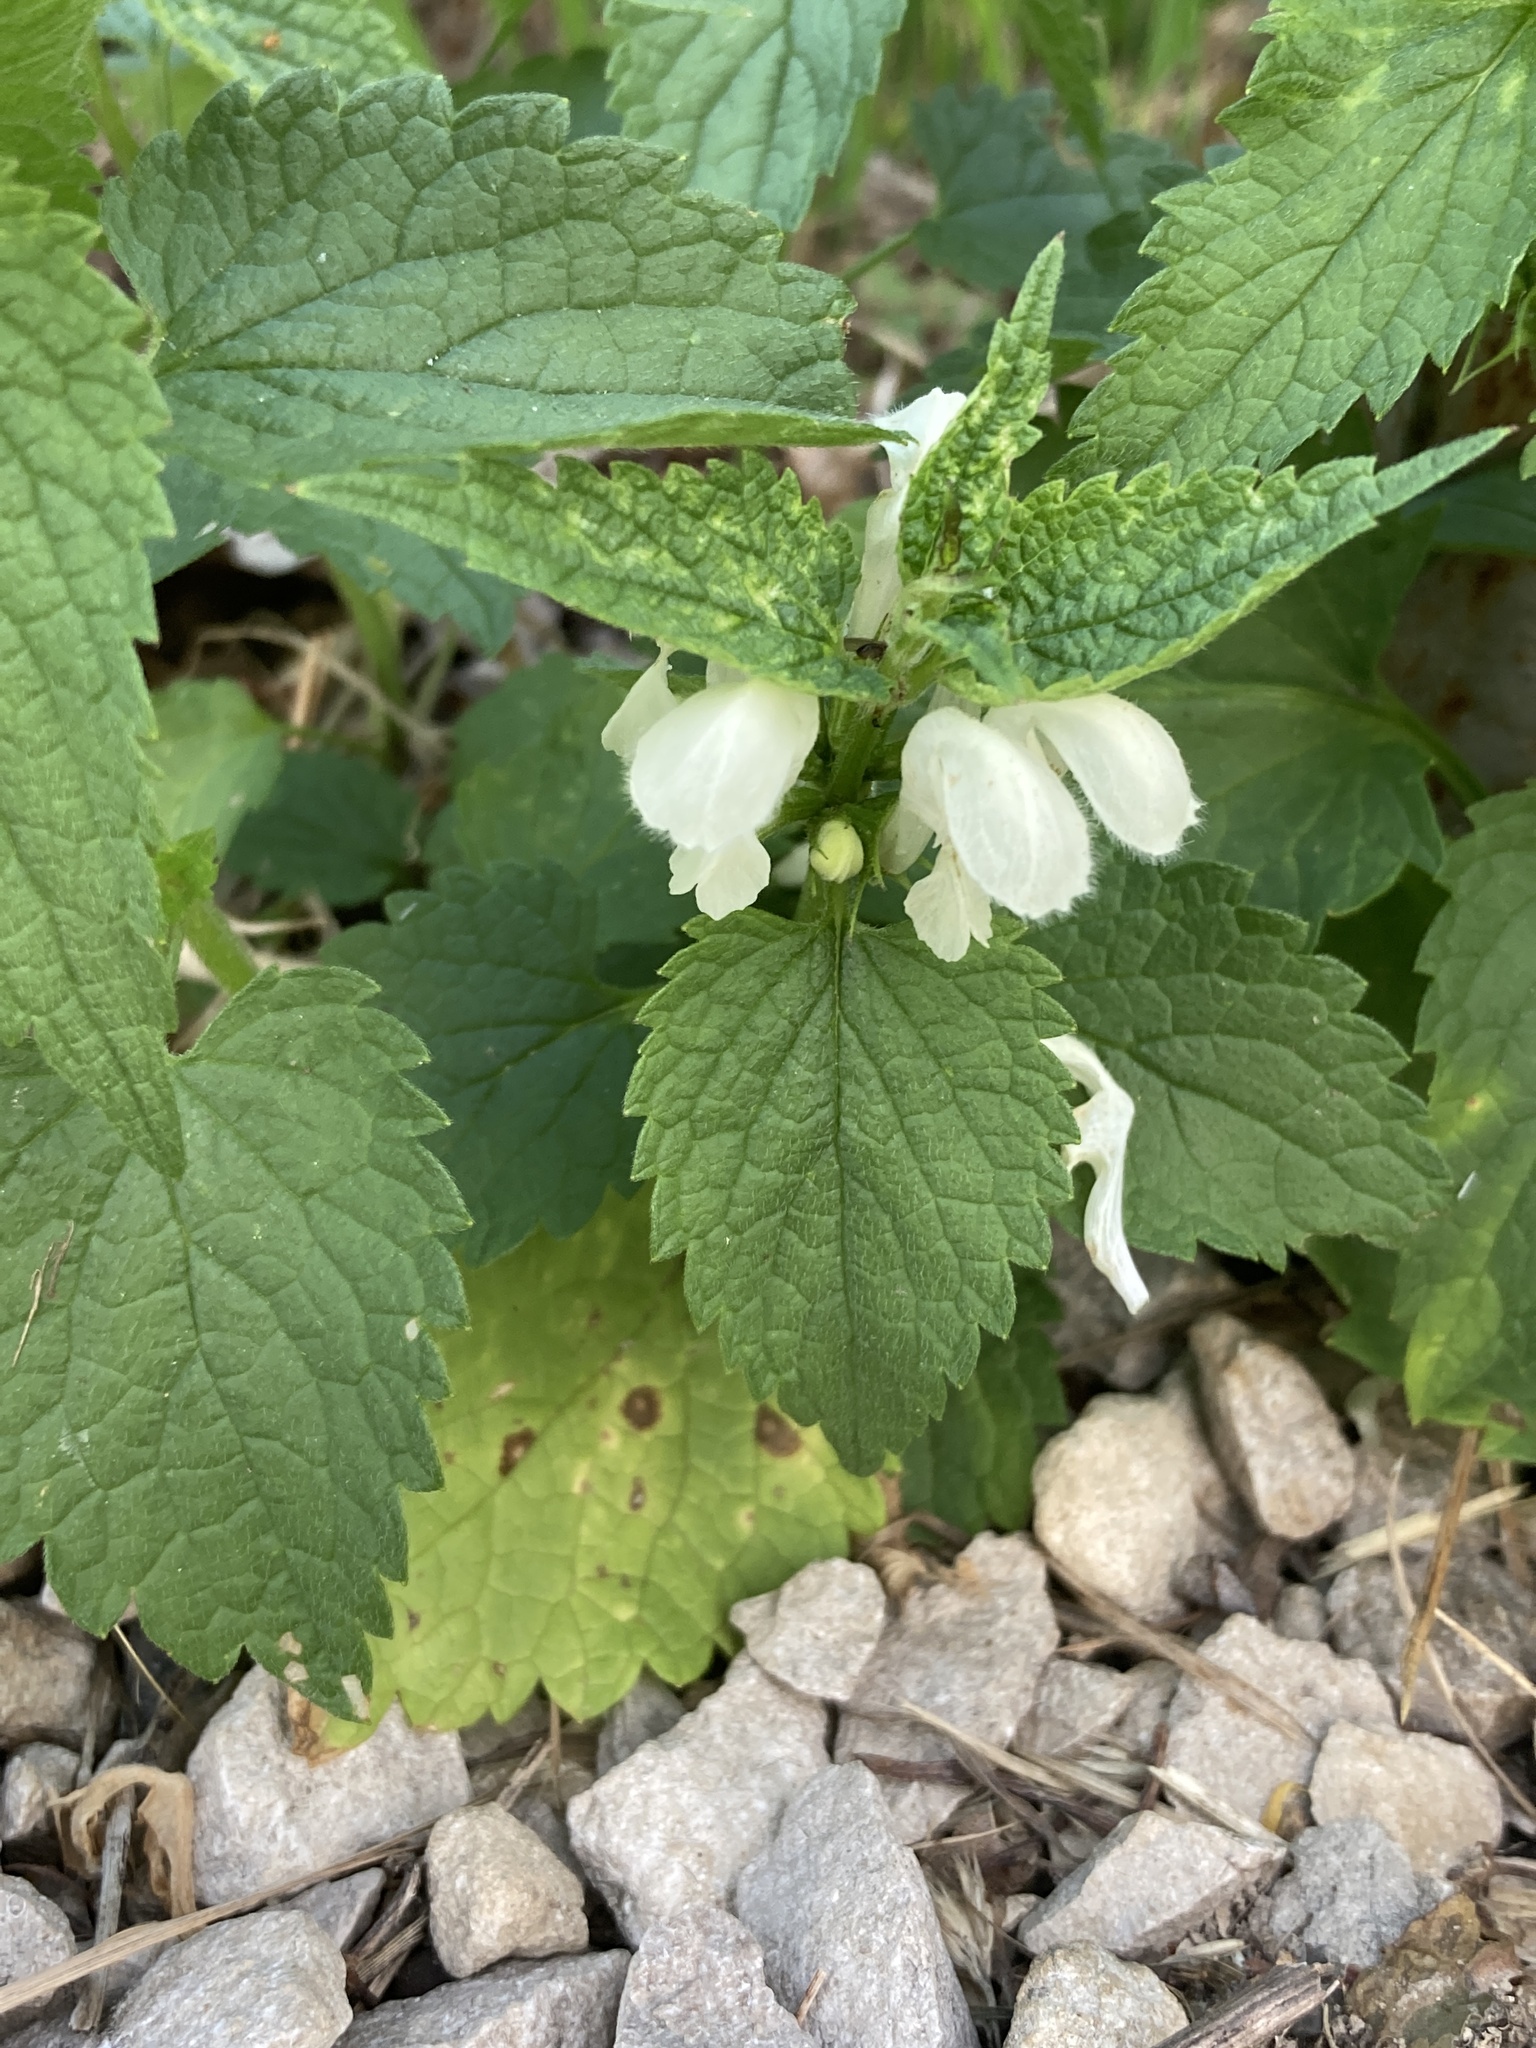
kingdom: Plantae
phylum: Tracheophyta
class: Magnoliopsida
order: Lamiales
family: Lamiaceae
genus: Lamium
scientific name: Lamium album
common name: White dead-nettle
